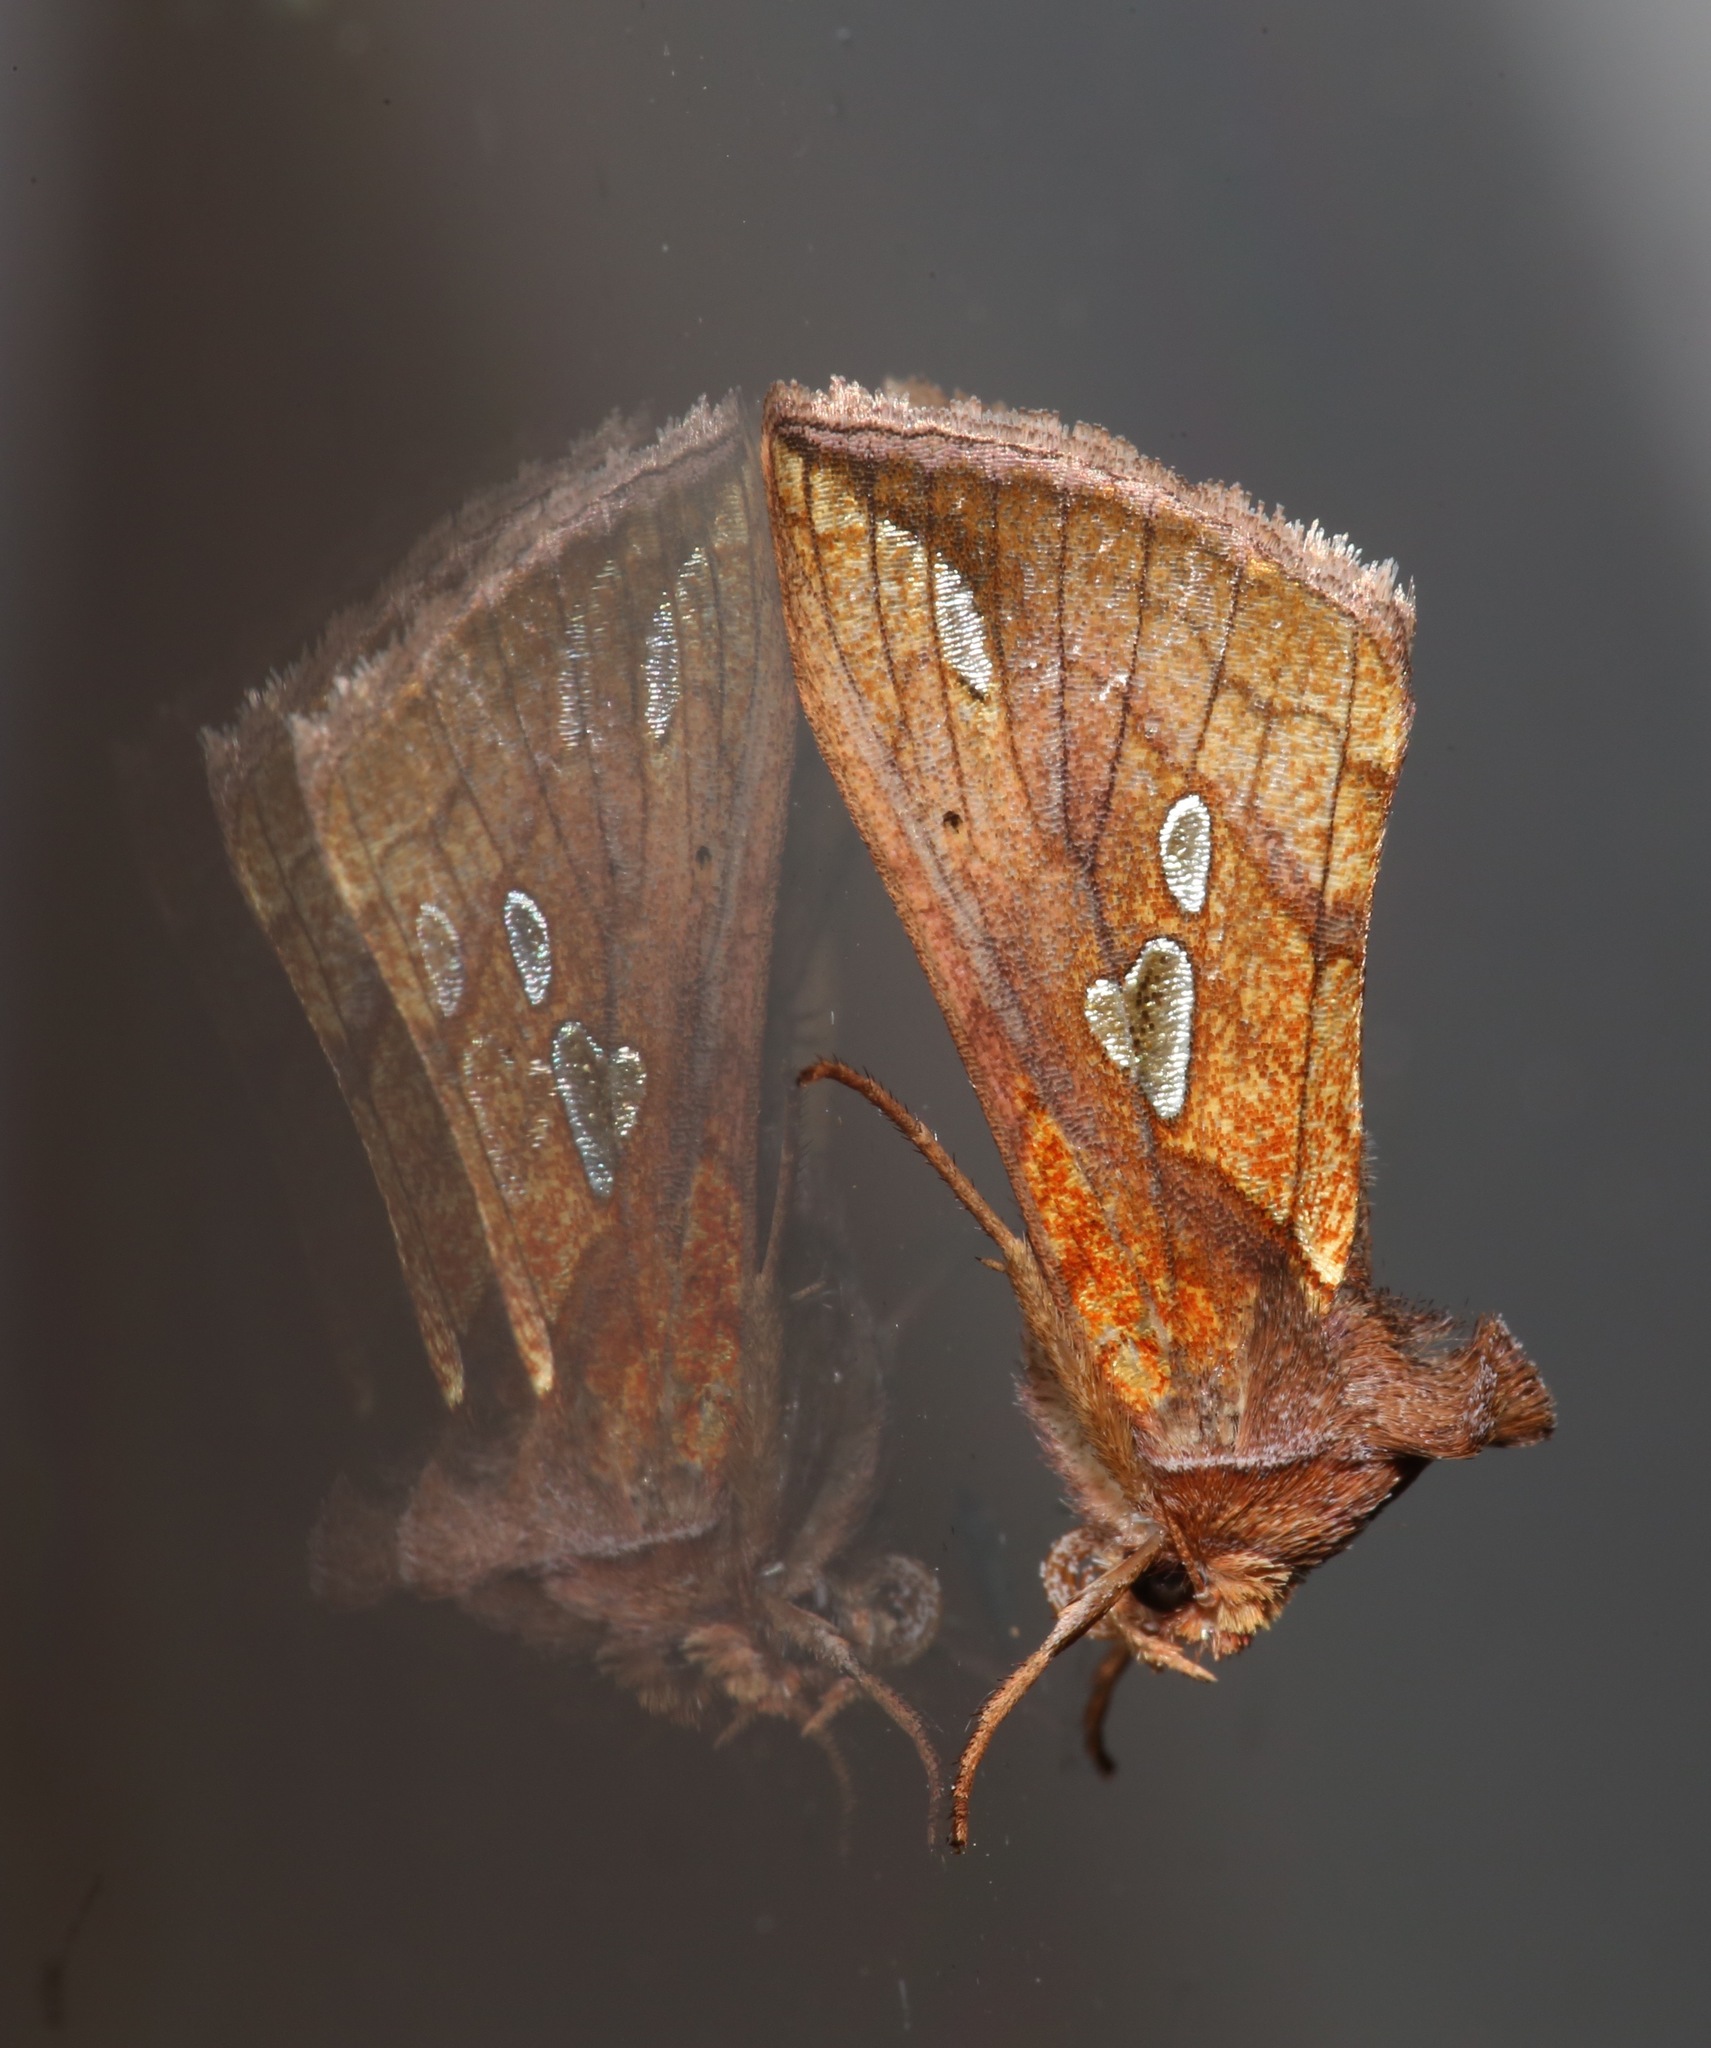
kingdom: Animalia
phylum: Arthropoda
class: Insecta
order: Lepidoptera
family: Noctuidae
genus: Plusia
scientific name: Plusia putnami
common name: Lempke's gold spot
